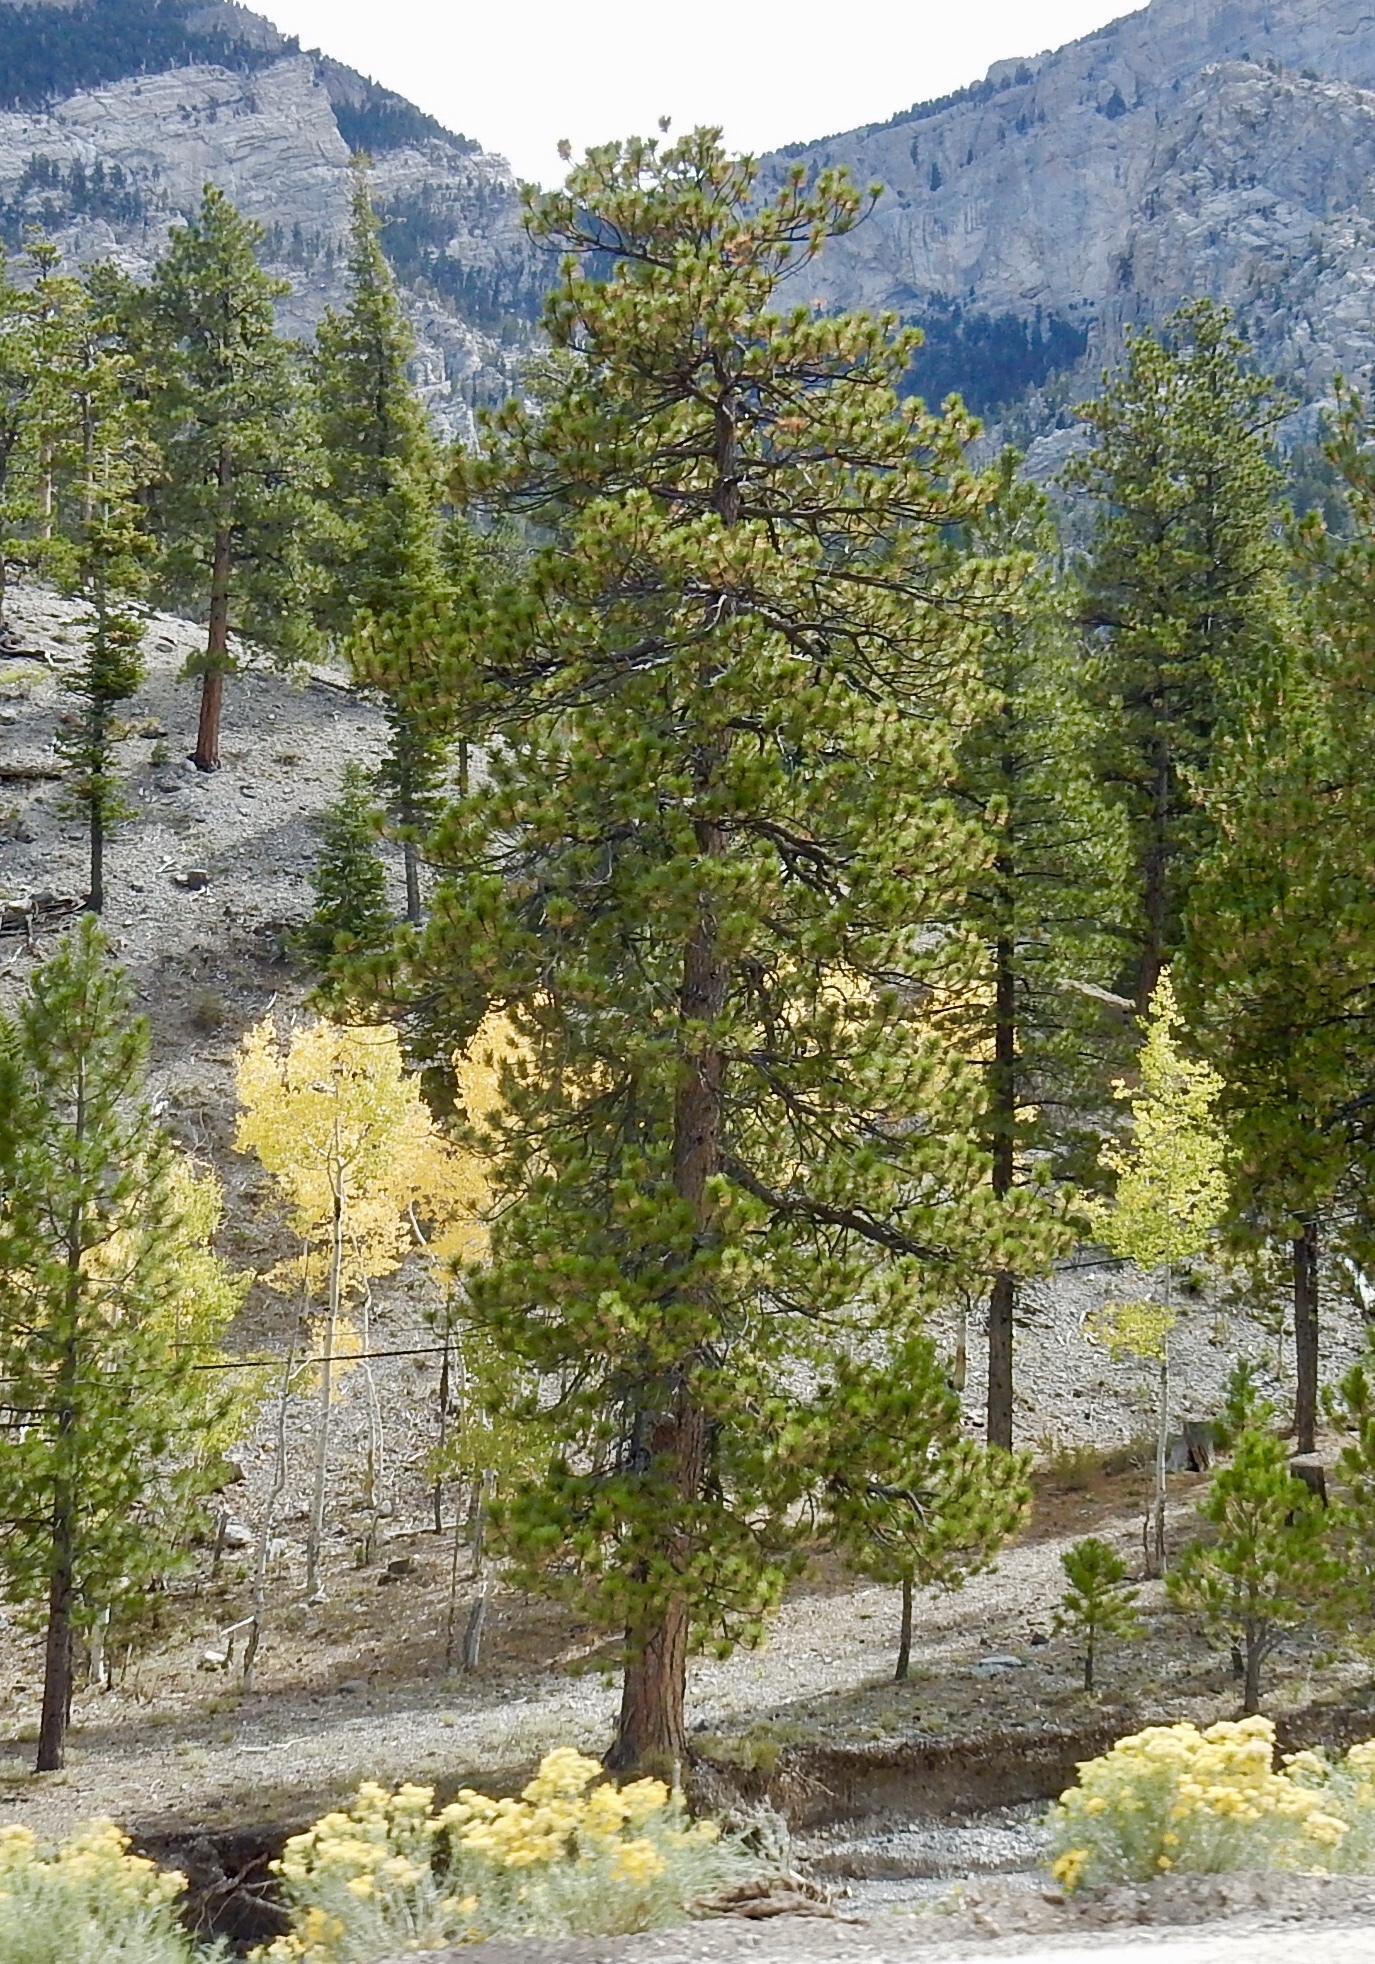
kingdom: Plantae
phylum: Tracheophyta
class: Pinopsida
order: Pinales
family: Pinaceae
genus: Pinus
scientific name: Pinus ponderosa
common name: Western yellow-pine
